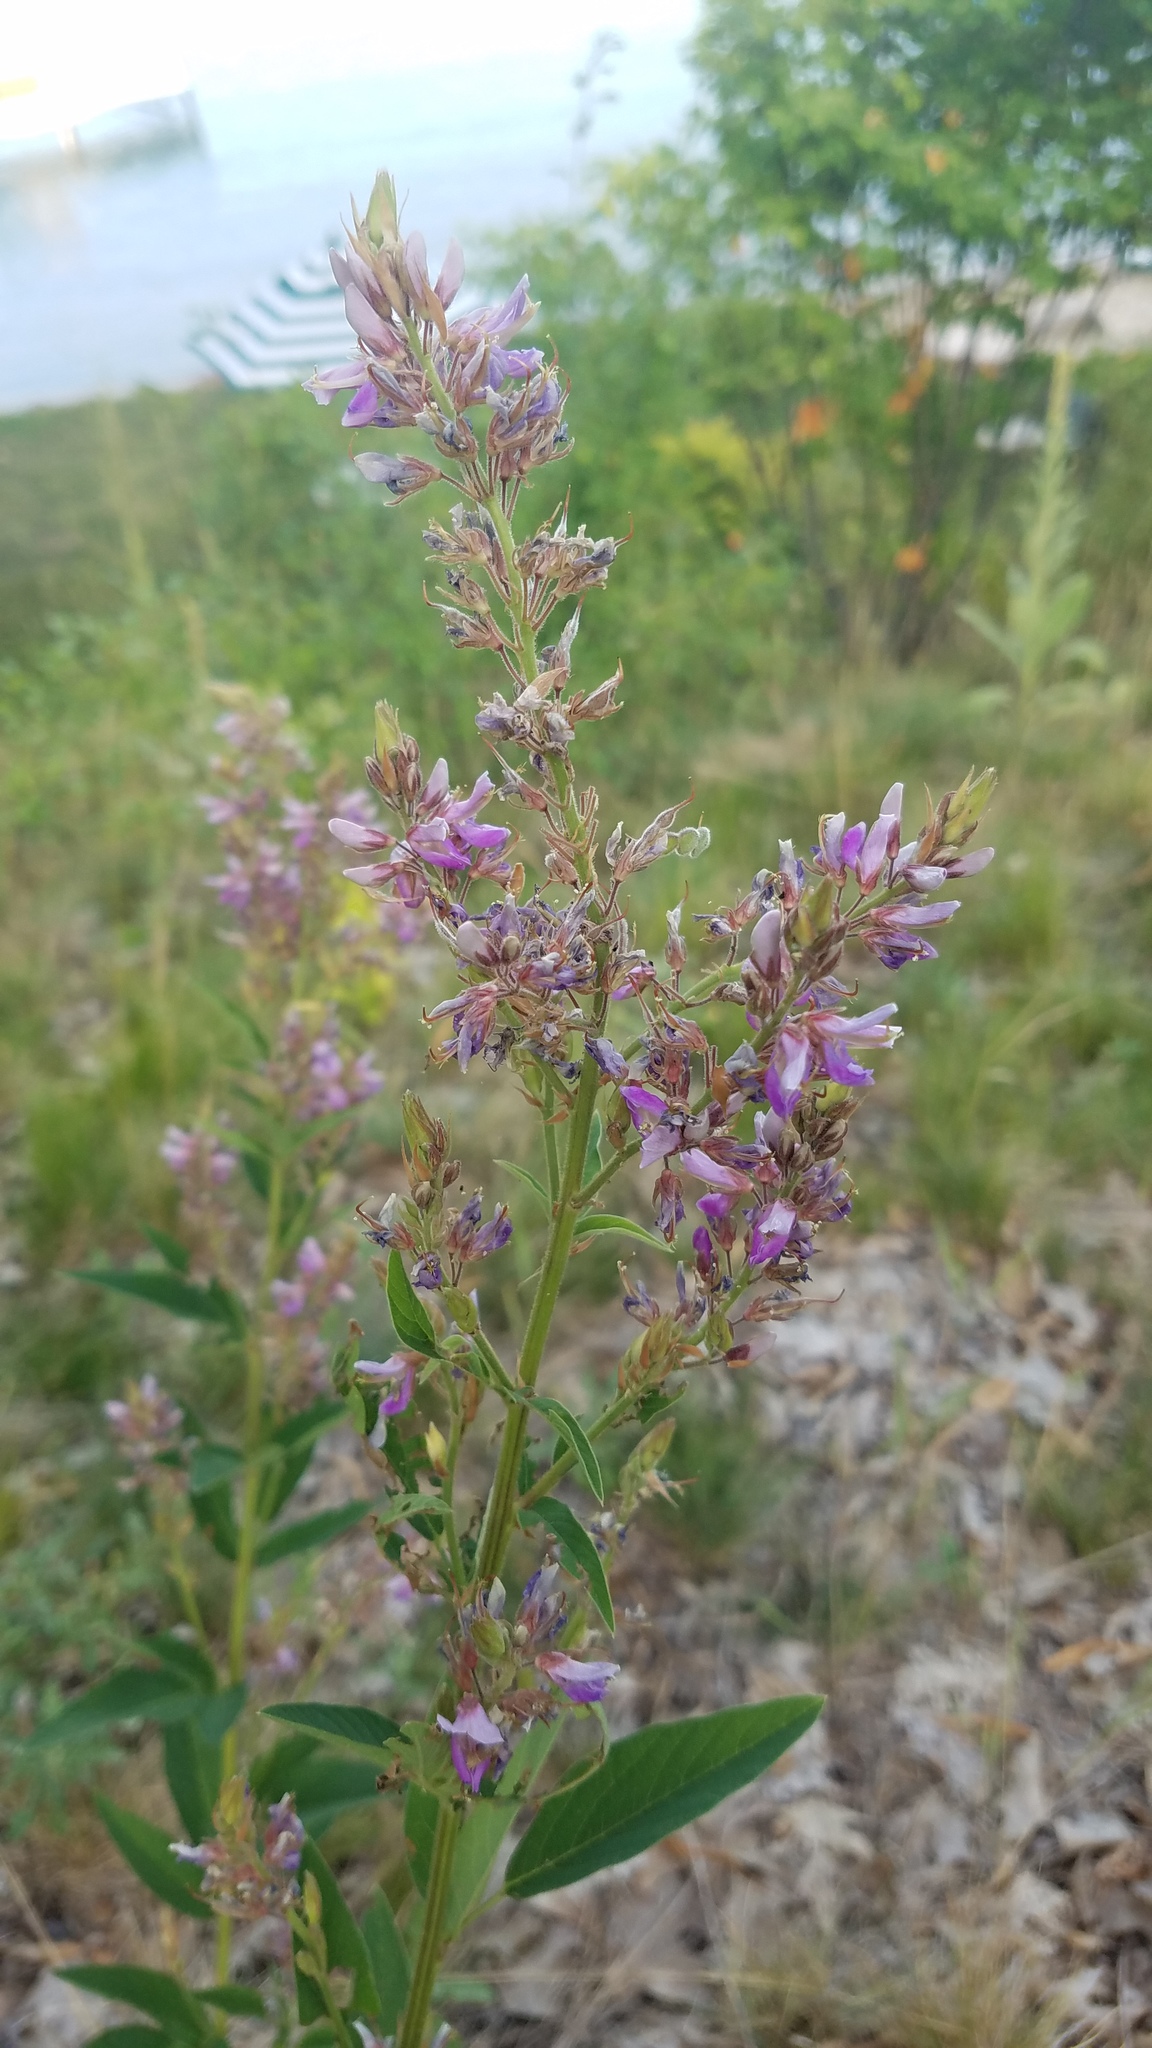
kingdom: Plantae
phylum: Tracheophyta
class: Magnoliopsida
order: Fabales
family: Fabaceae
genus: Desmodium
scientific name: Desmodium canadense
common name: Canada tick-trefoil
